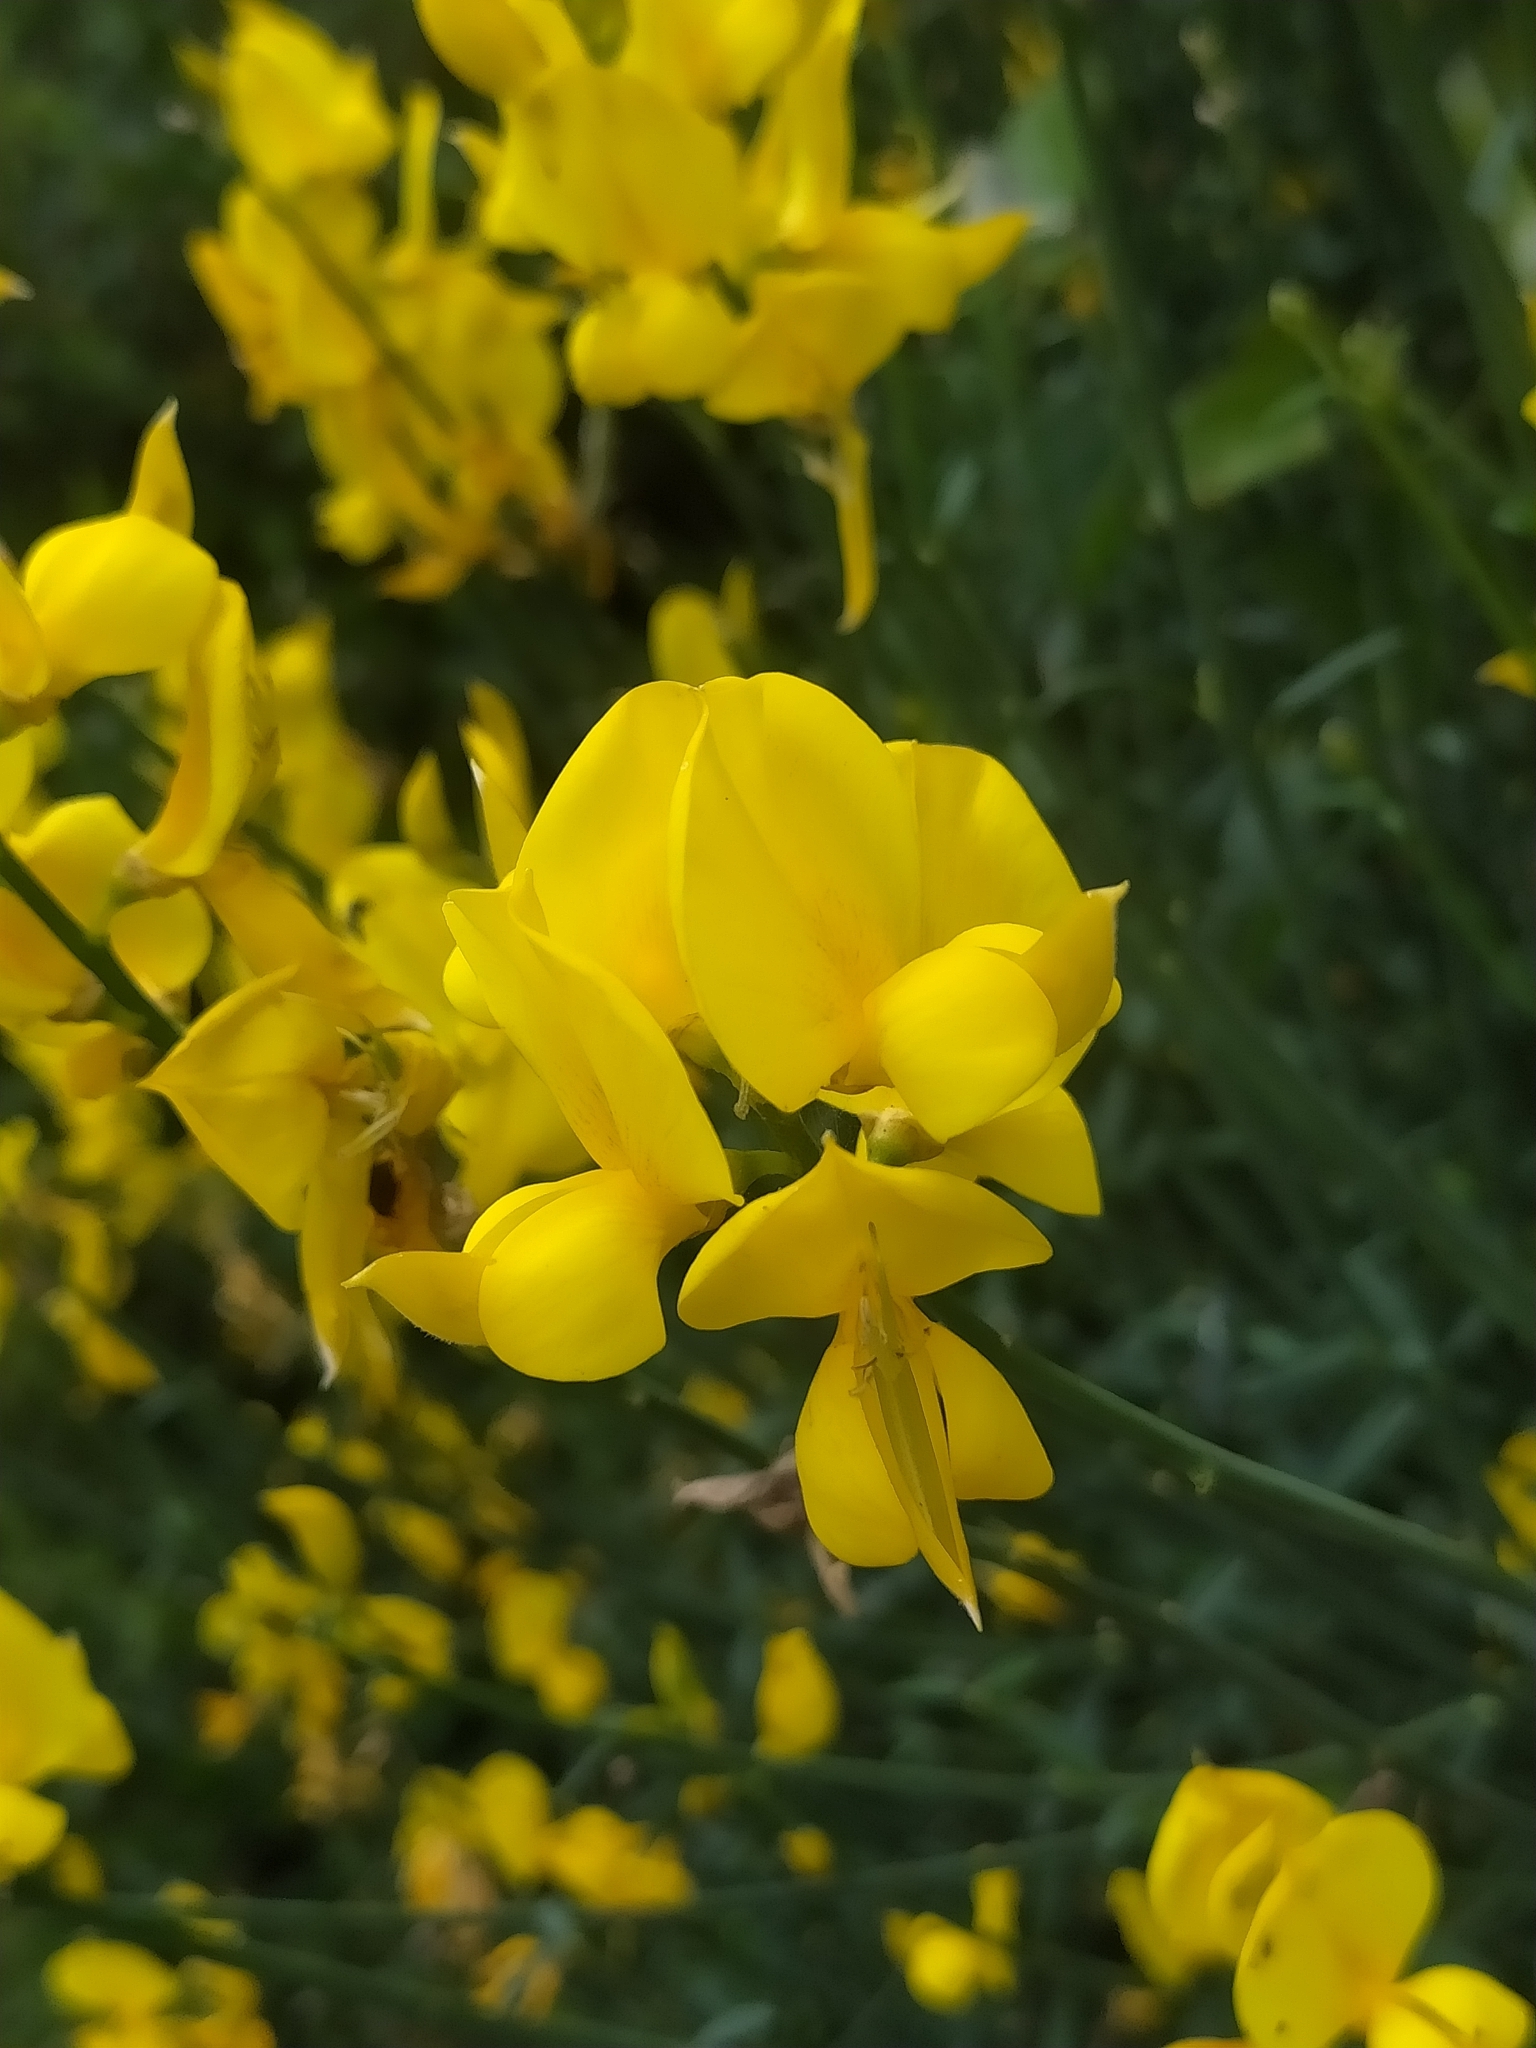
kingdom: Plantae
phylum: Tracheophyta
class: Magnoliopsida
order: Fabales
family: Fabaceae
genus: Spartium
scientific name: Spartium junceum
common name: Spanish broom
